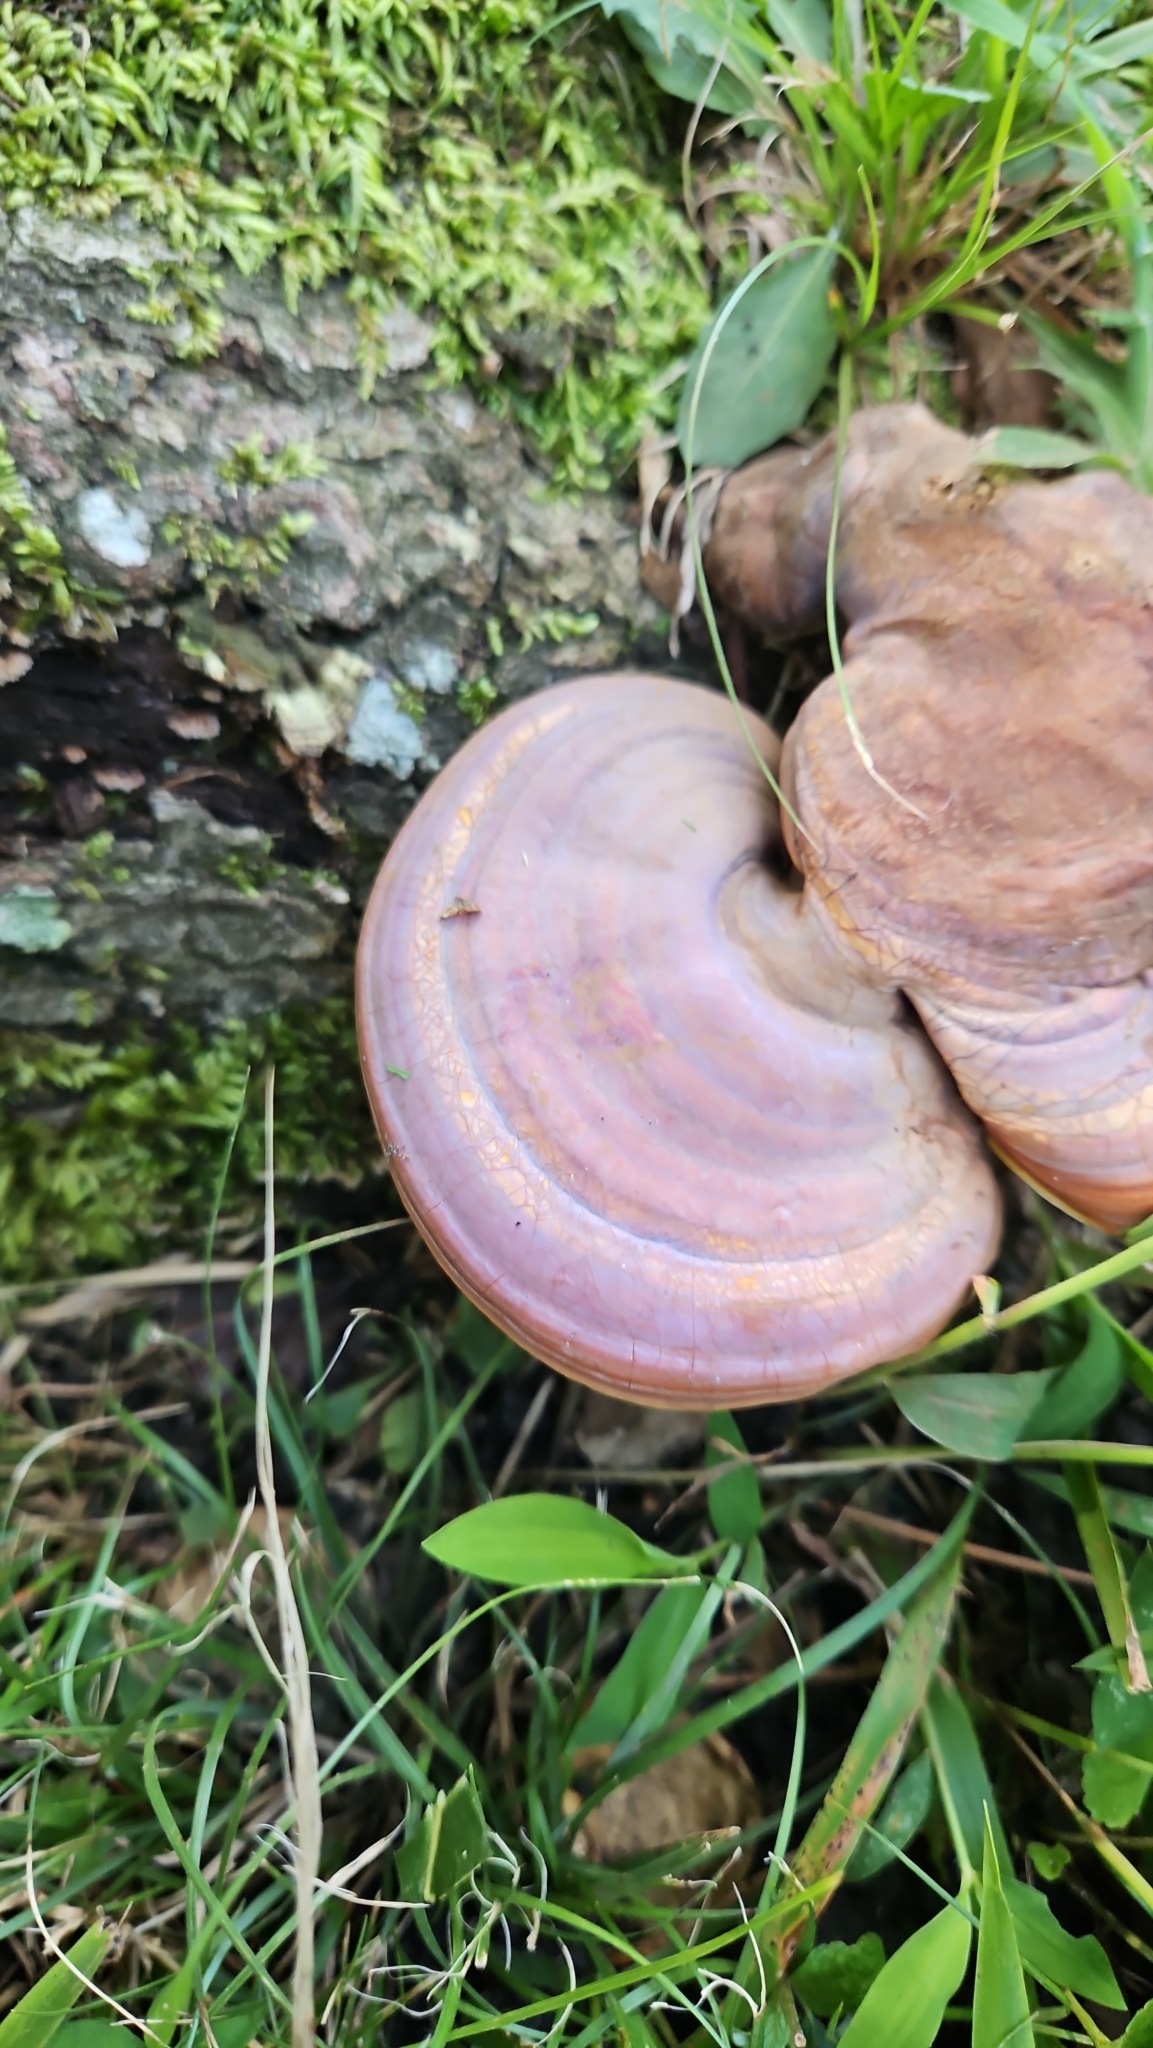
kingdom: Fungi
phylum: Basidiomycota
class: Agaricomycetes
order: Polyporales
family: Polyporaceae
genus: Ganoderma
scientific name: Ganoderma curtisii
